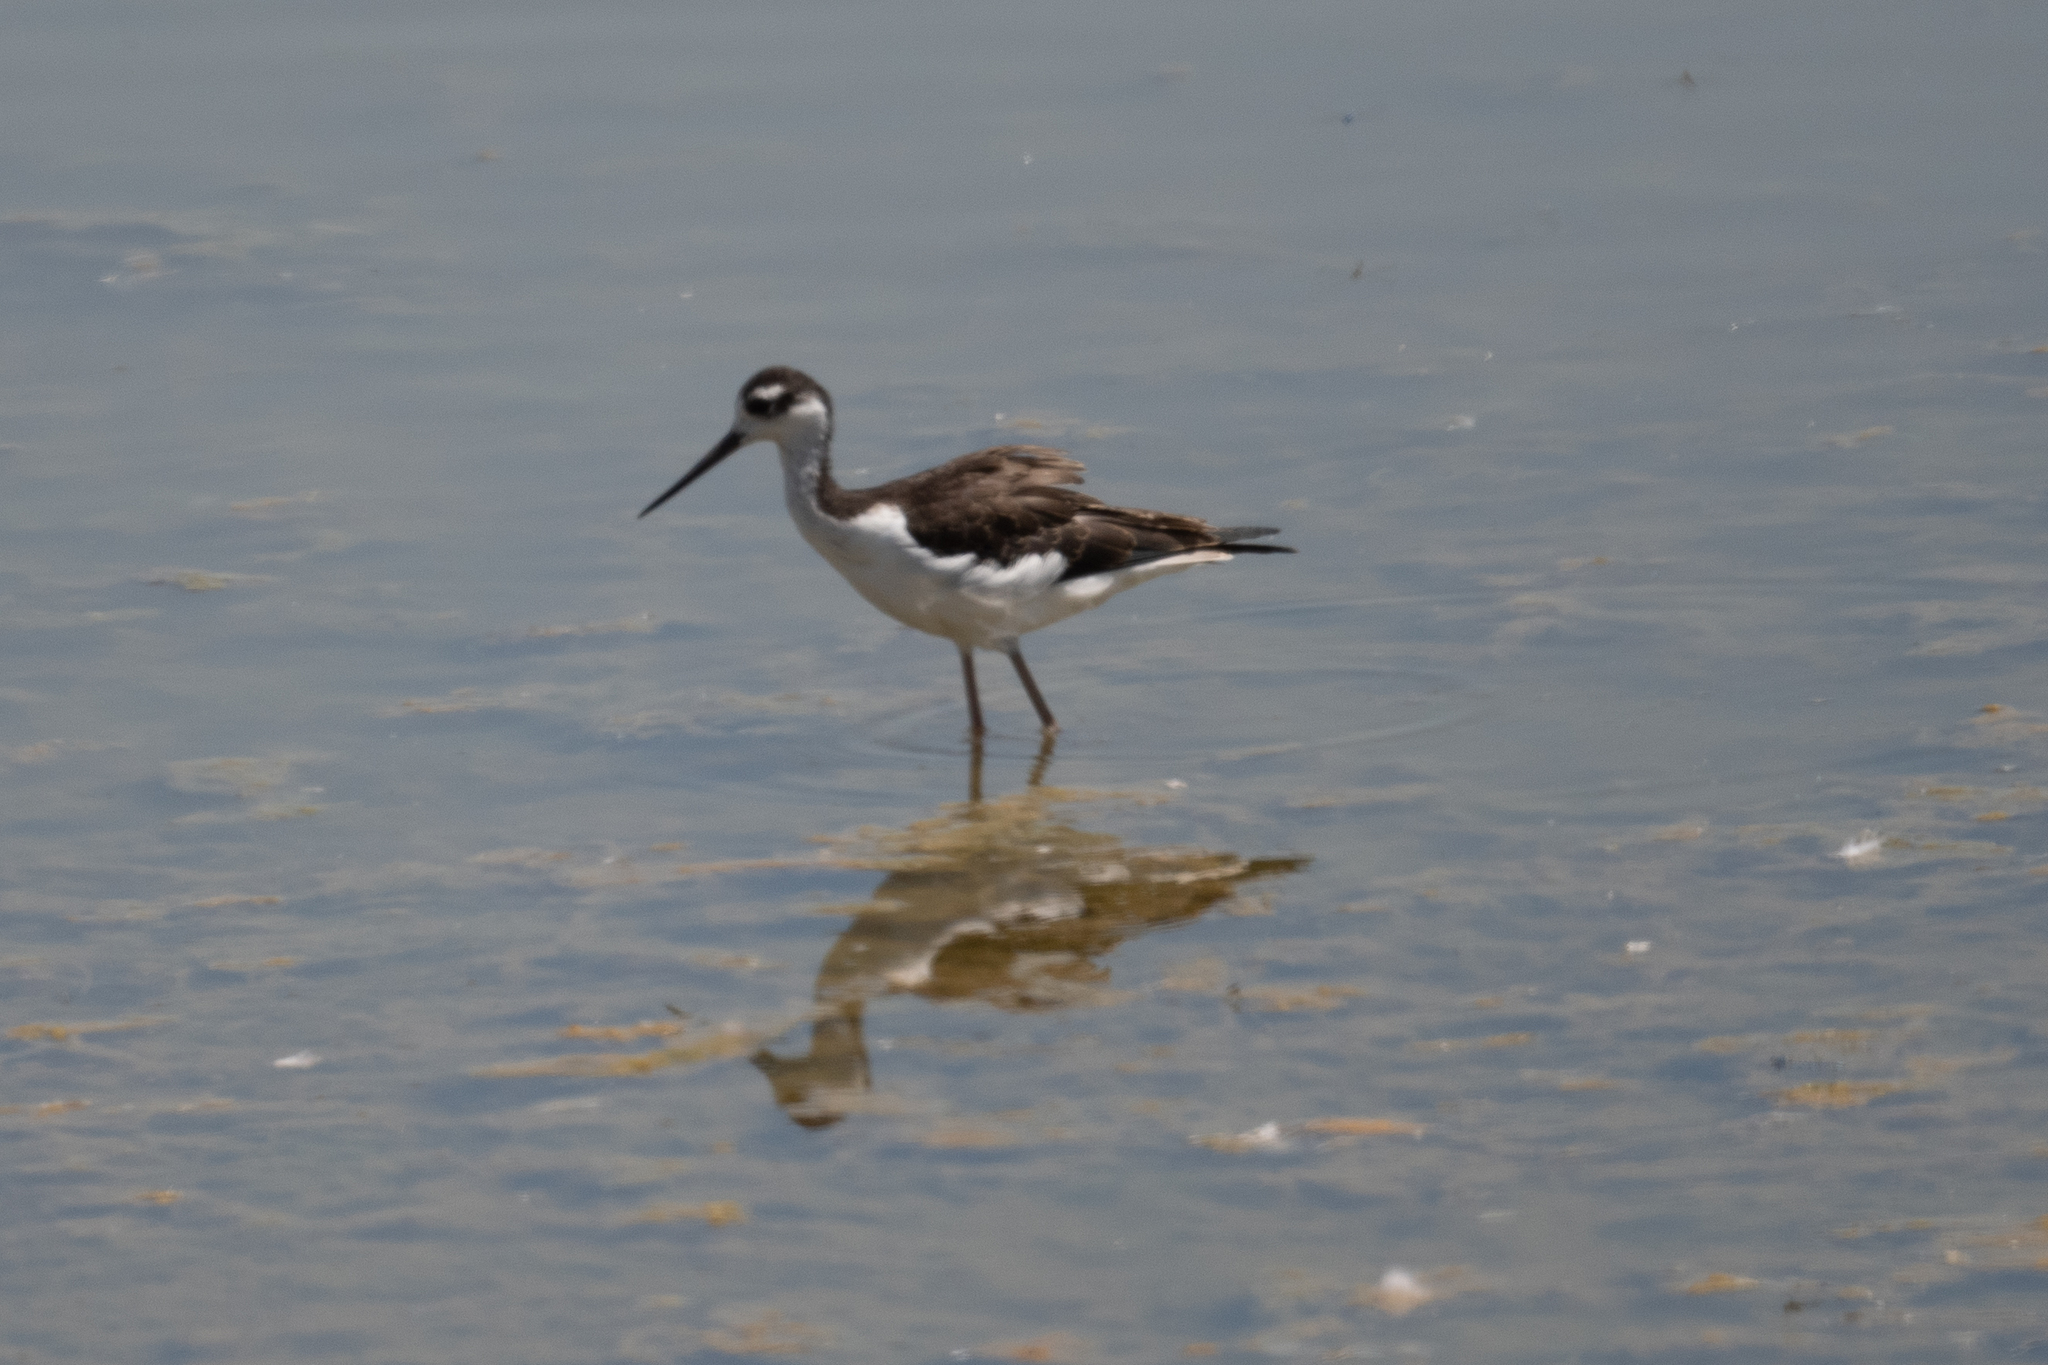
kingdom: Animalia
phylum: Chordata
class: Aves
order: Charadriiformes
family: Recurvirostridae
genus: Himantopus
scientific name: Himantopus mexicanus
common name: Black-necked stilt
